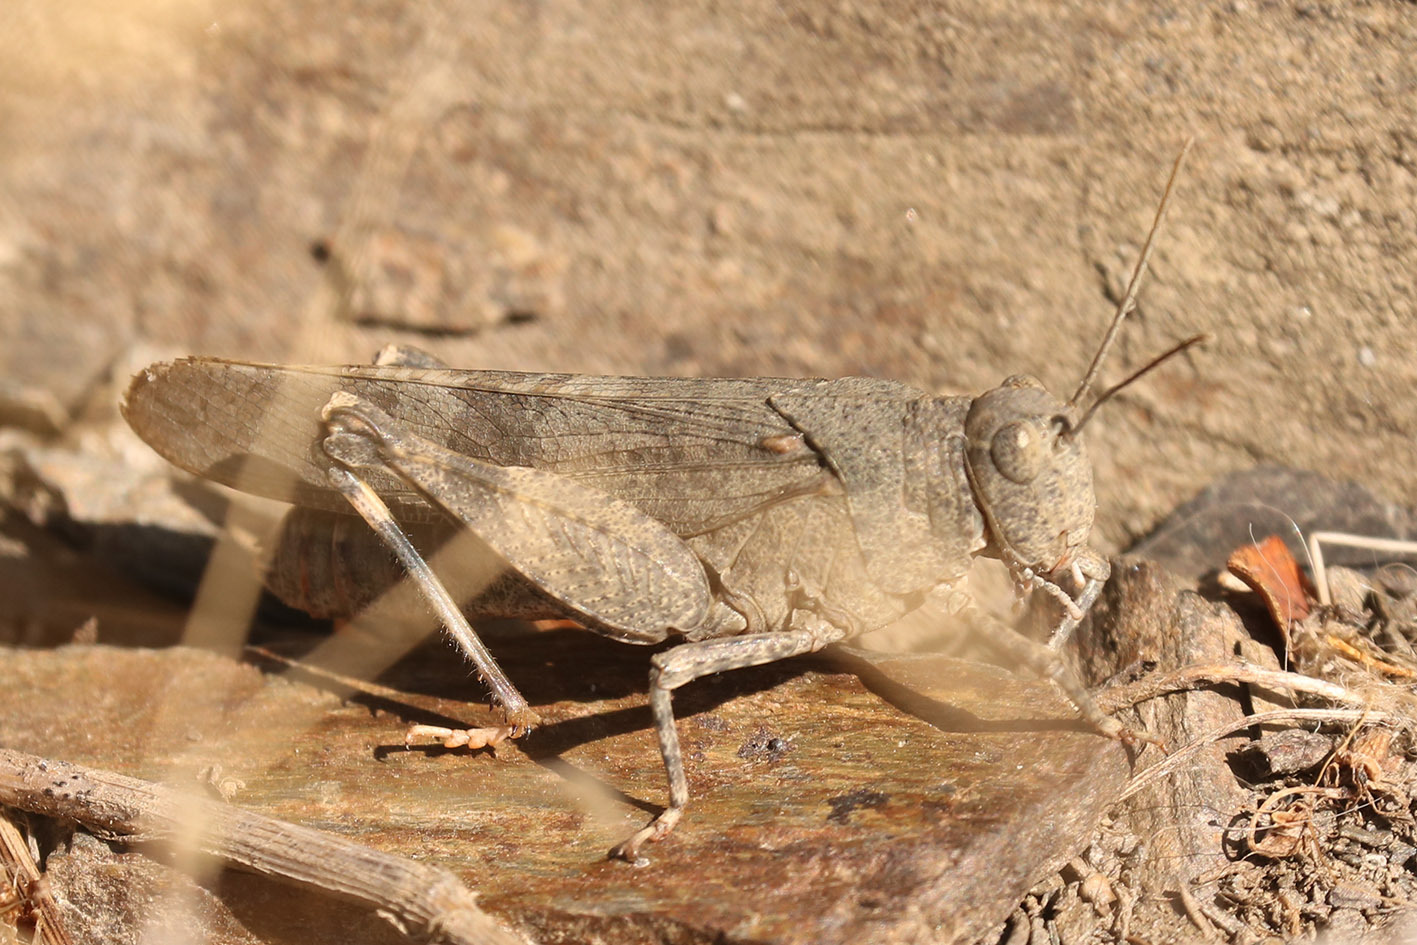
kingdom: Animalia
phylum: Arthropoda
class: Insecta
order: Orthoptera
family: Acrididae
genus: Oedipoda
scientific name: Oedipoda germanica
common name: Red band-winged grasshopper
